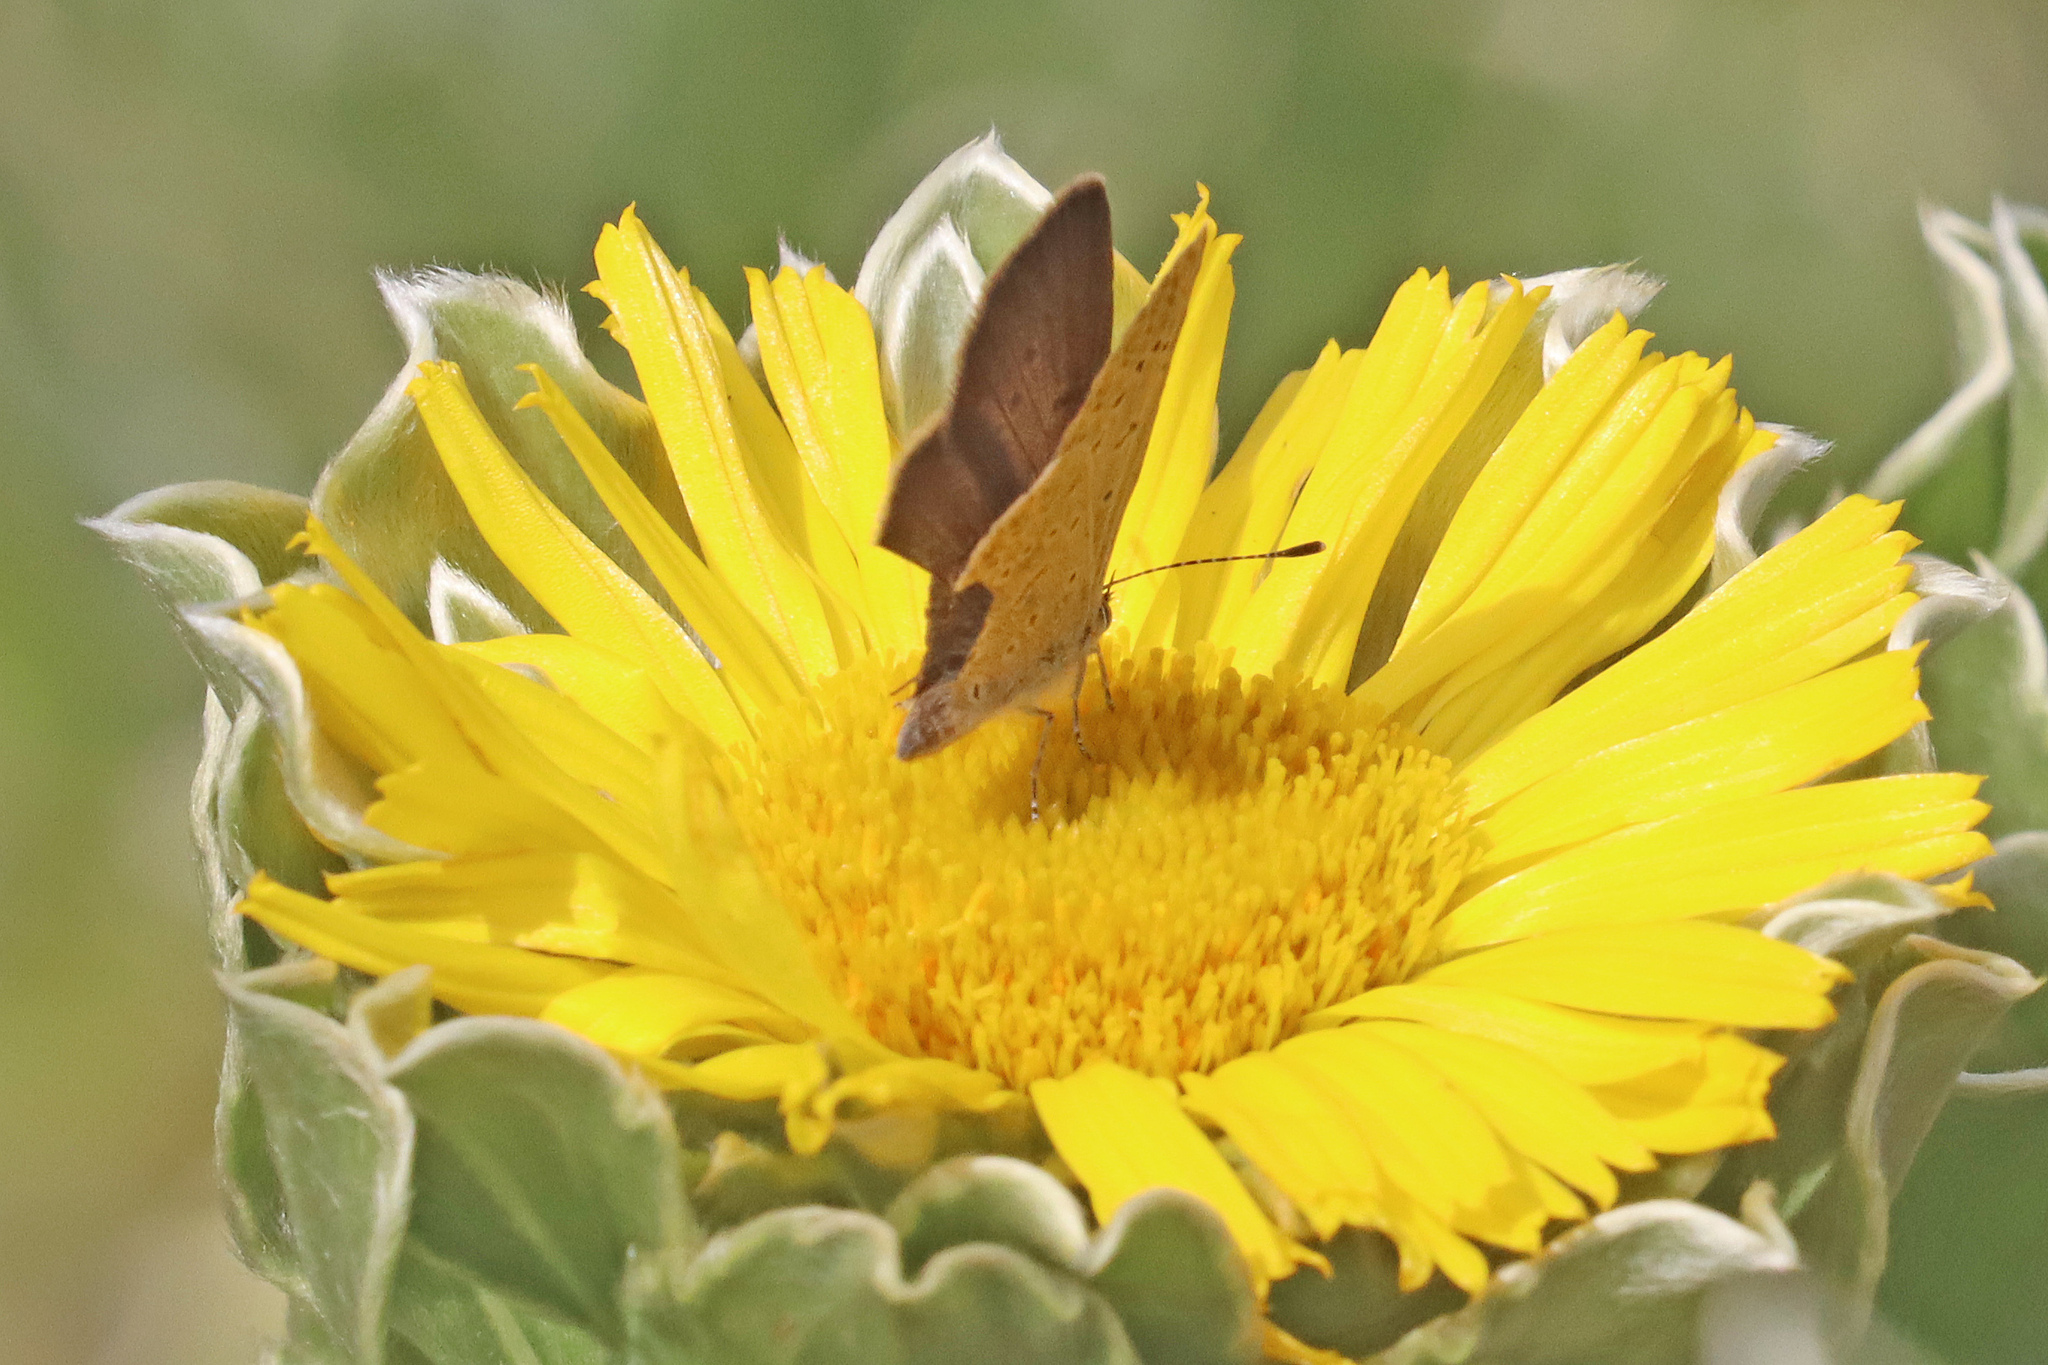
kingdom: Animalia
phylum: Arthropoda
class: Insecta
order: Lepidoptera
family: Lycaenidae
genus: Zizeeria
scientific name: Zizeeria knysna
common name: African grass blue
